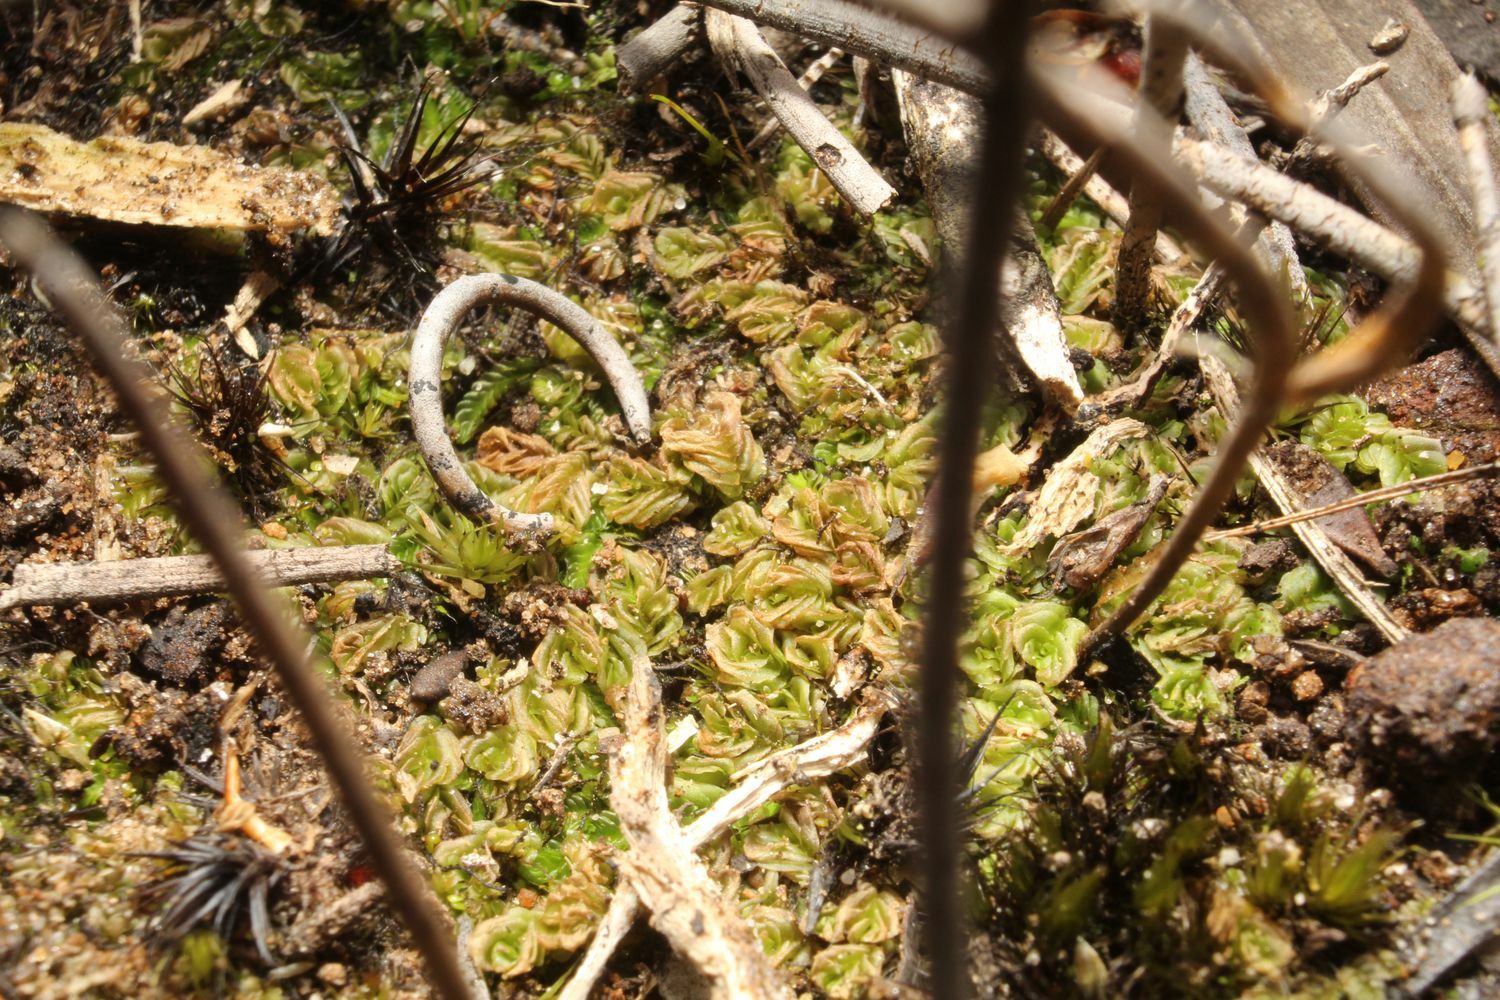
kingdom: Plantae
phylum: Marchantiophyta
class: Jungermanniopsida
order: Jungermanniales
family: Acrobolbaceae
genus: Lethocolea
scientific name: Lethocolea pansa
